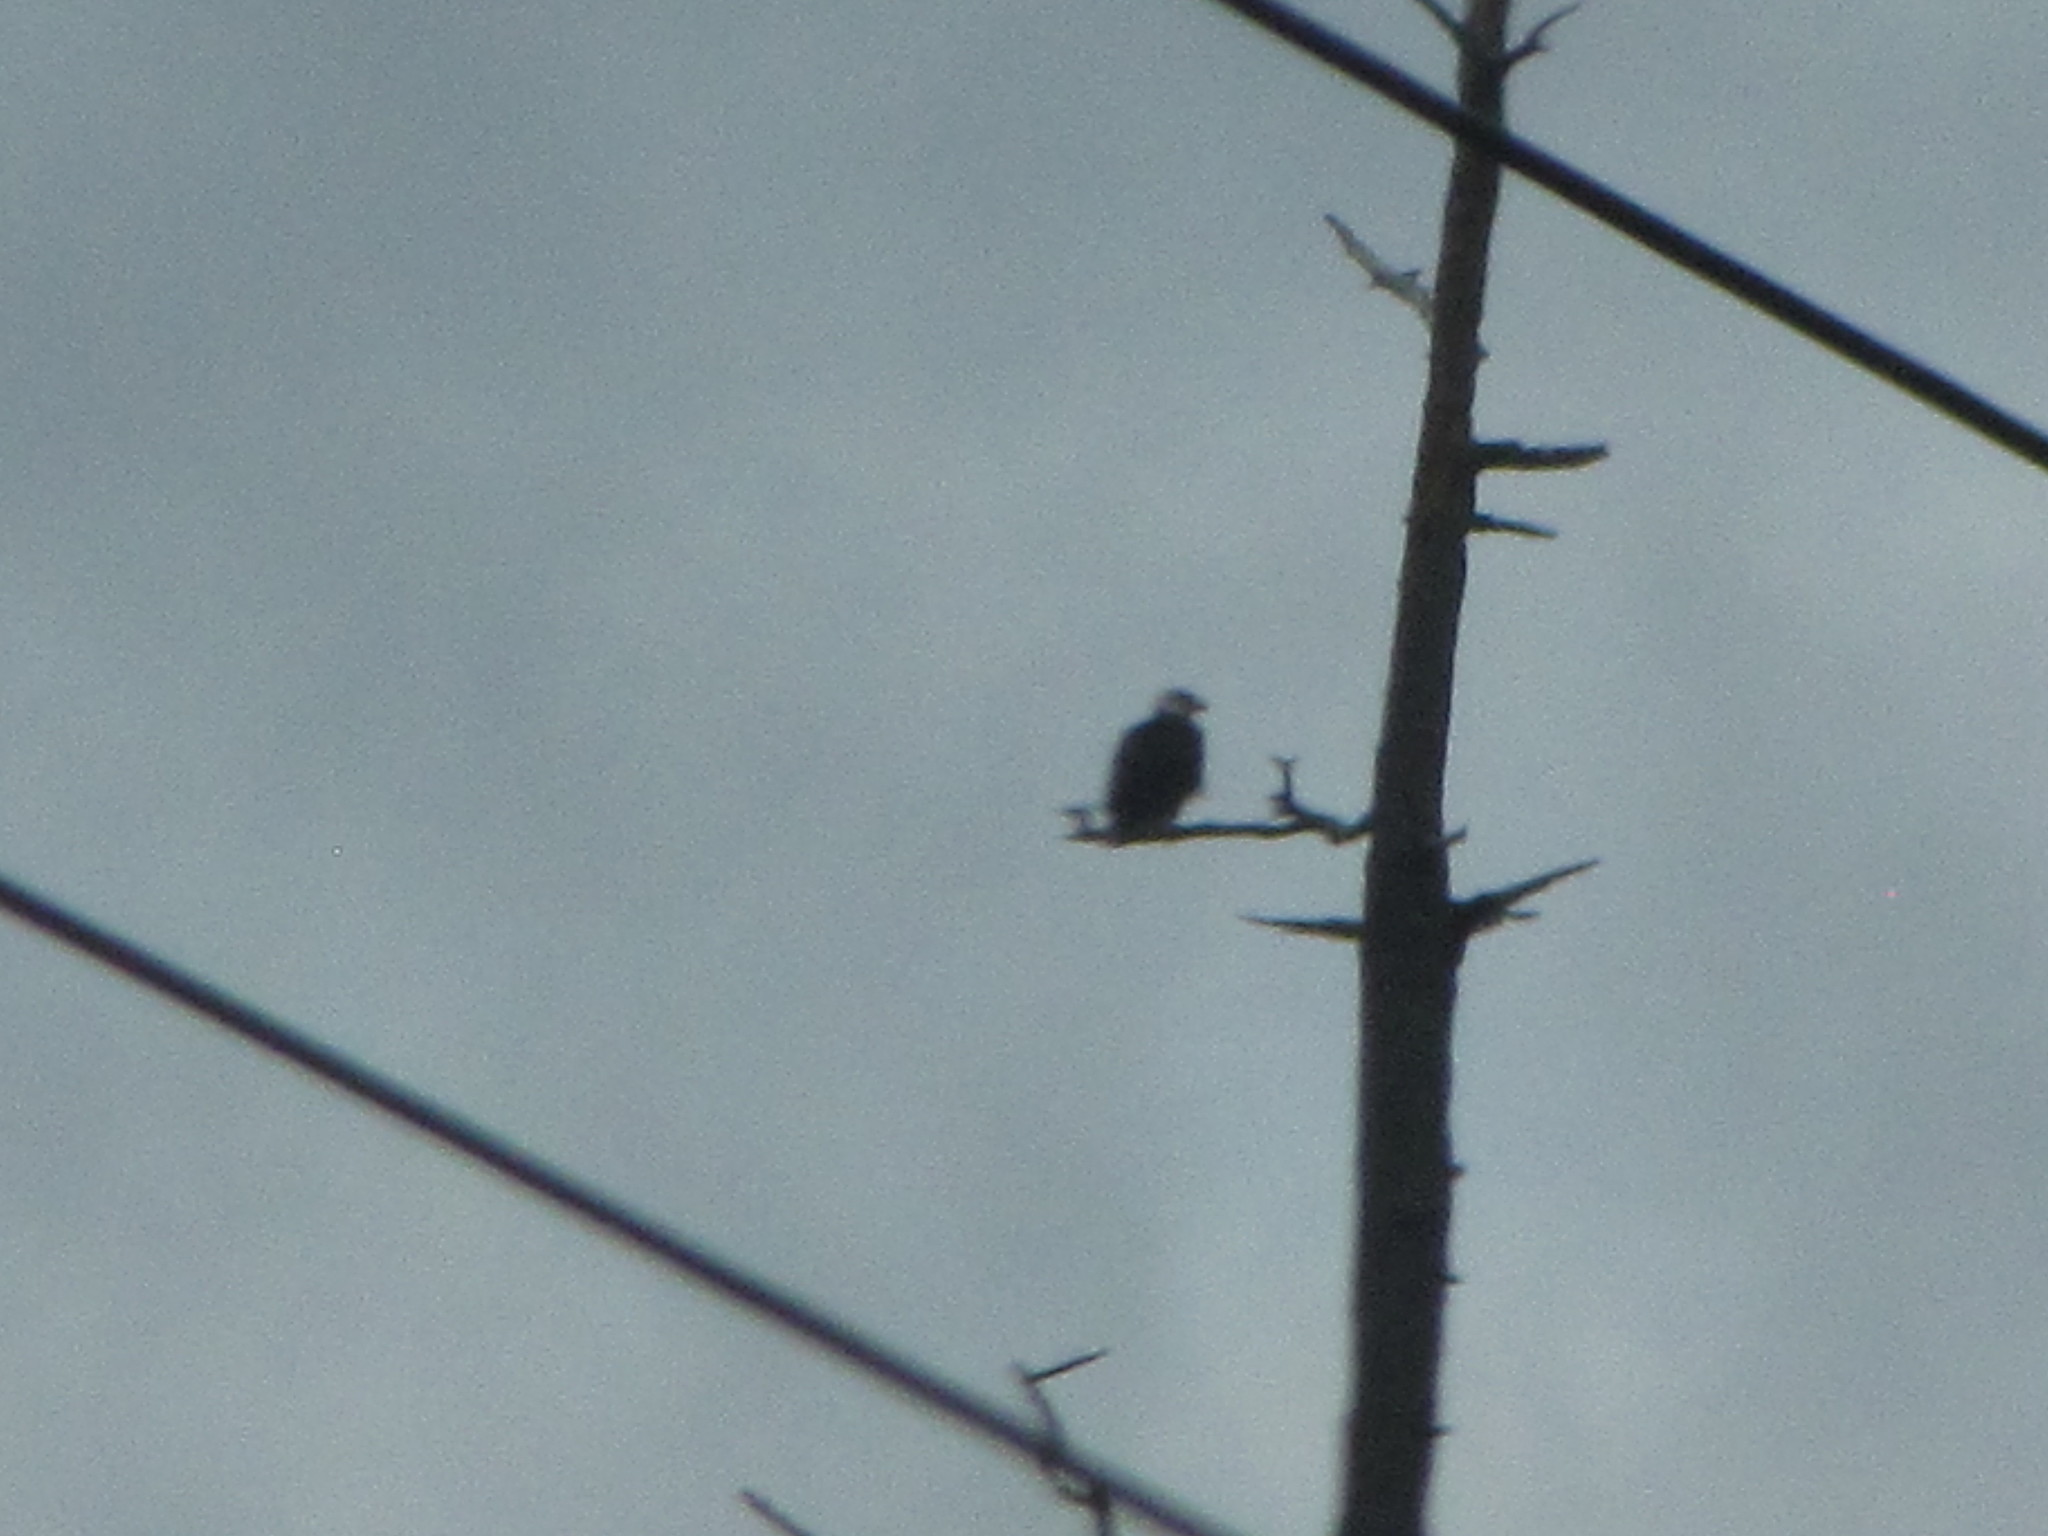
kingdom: Animalia
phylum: Chordata
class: Aves
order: Accipitriformes
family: Accipitridae
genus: Haliaeetus
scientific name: Haliaeetus leucocephalus
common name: Bald eagle
